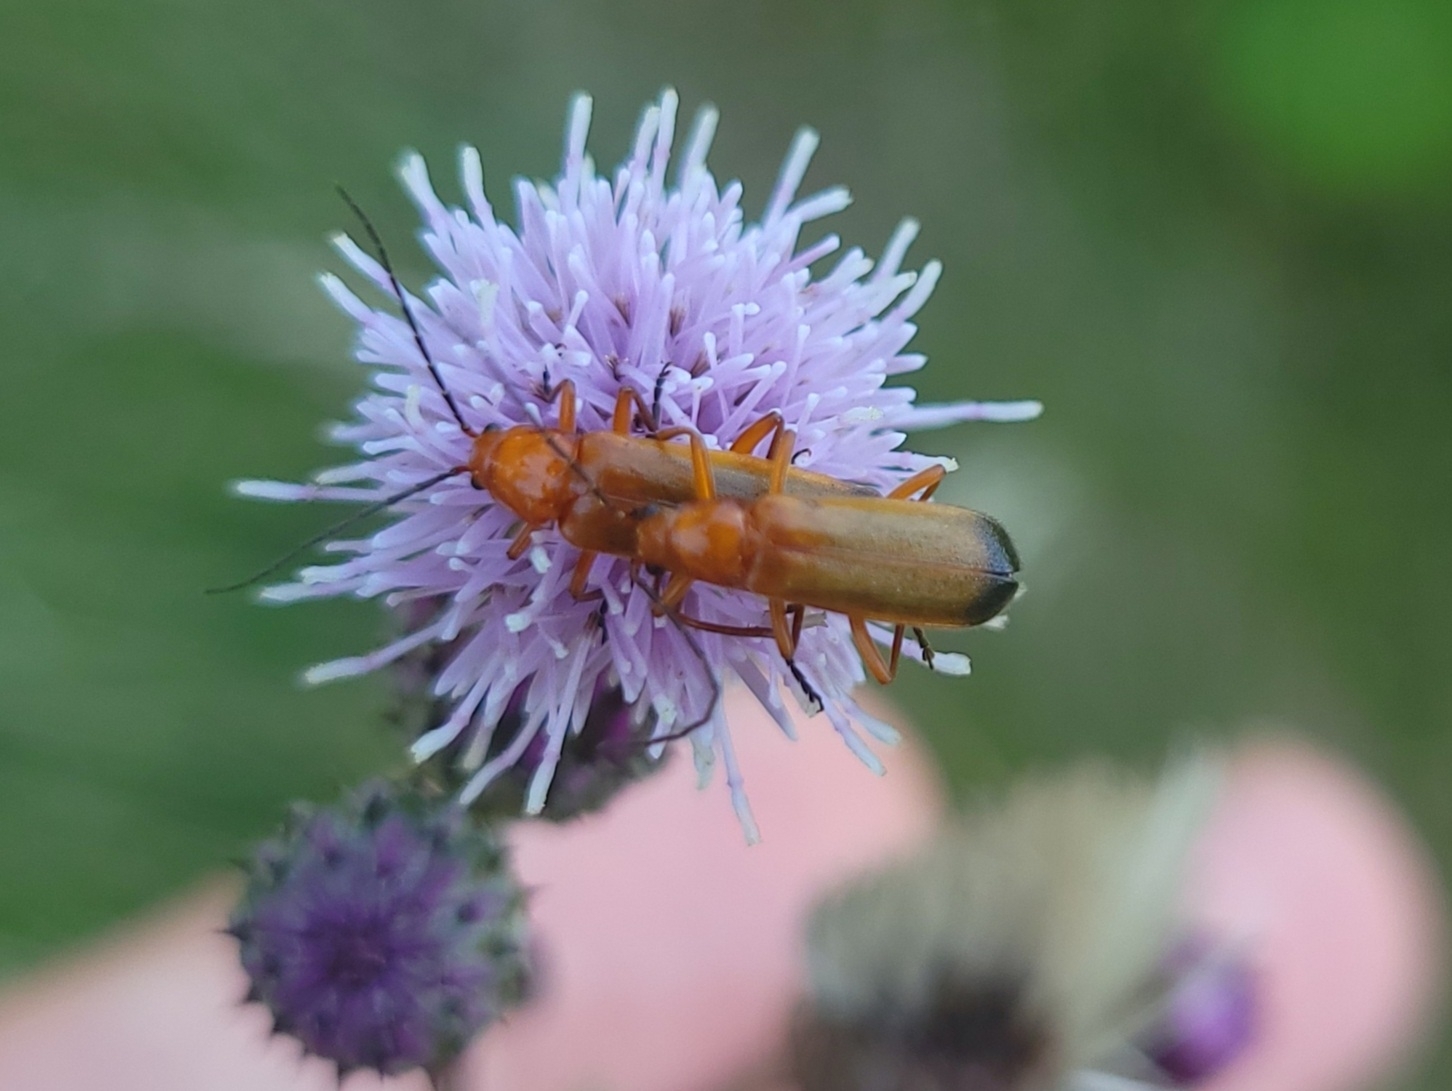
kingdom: Animalia
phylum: Arthropoda
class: Insecta
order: Coleoptera
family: Cantharidae
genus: Rhagonycha
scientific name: Rhagonycha fulva
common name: Common red soldier beetle
